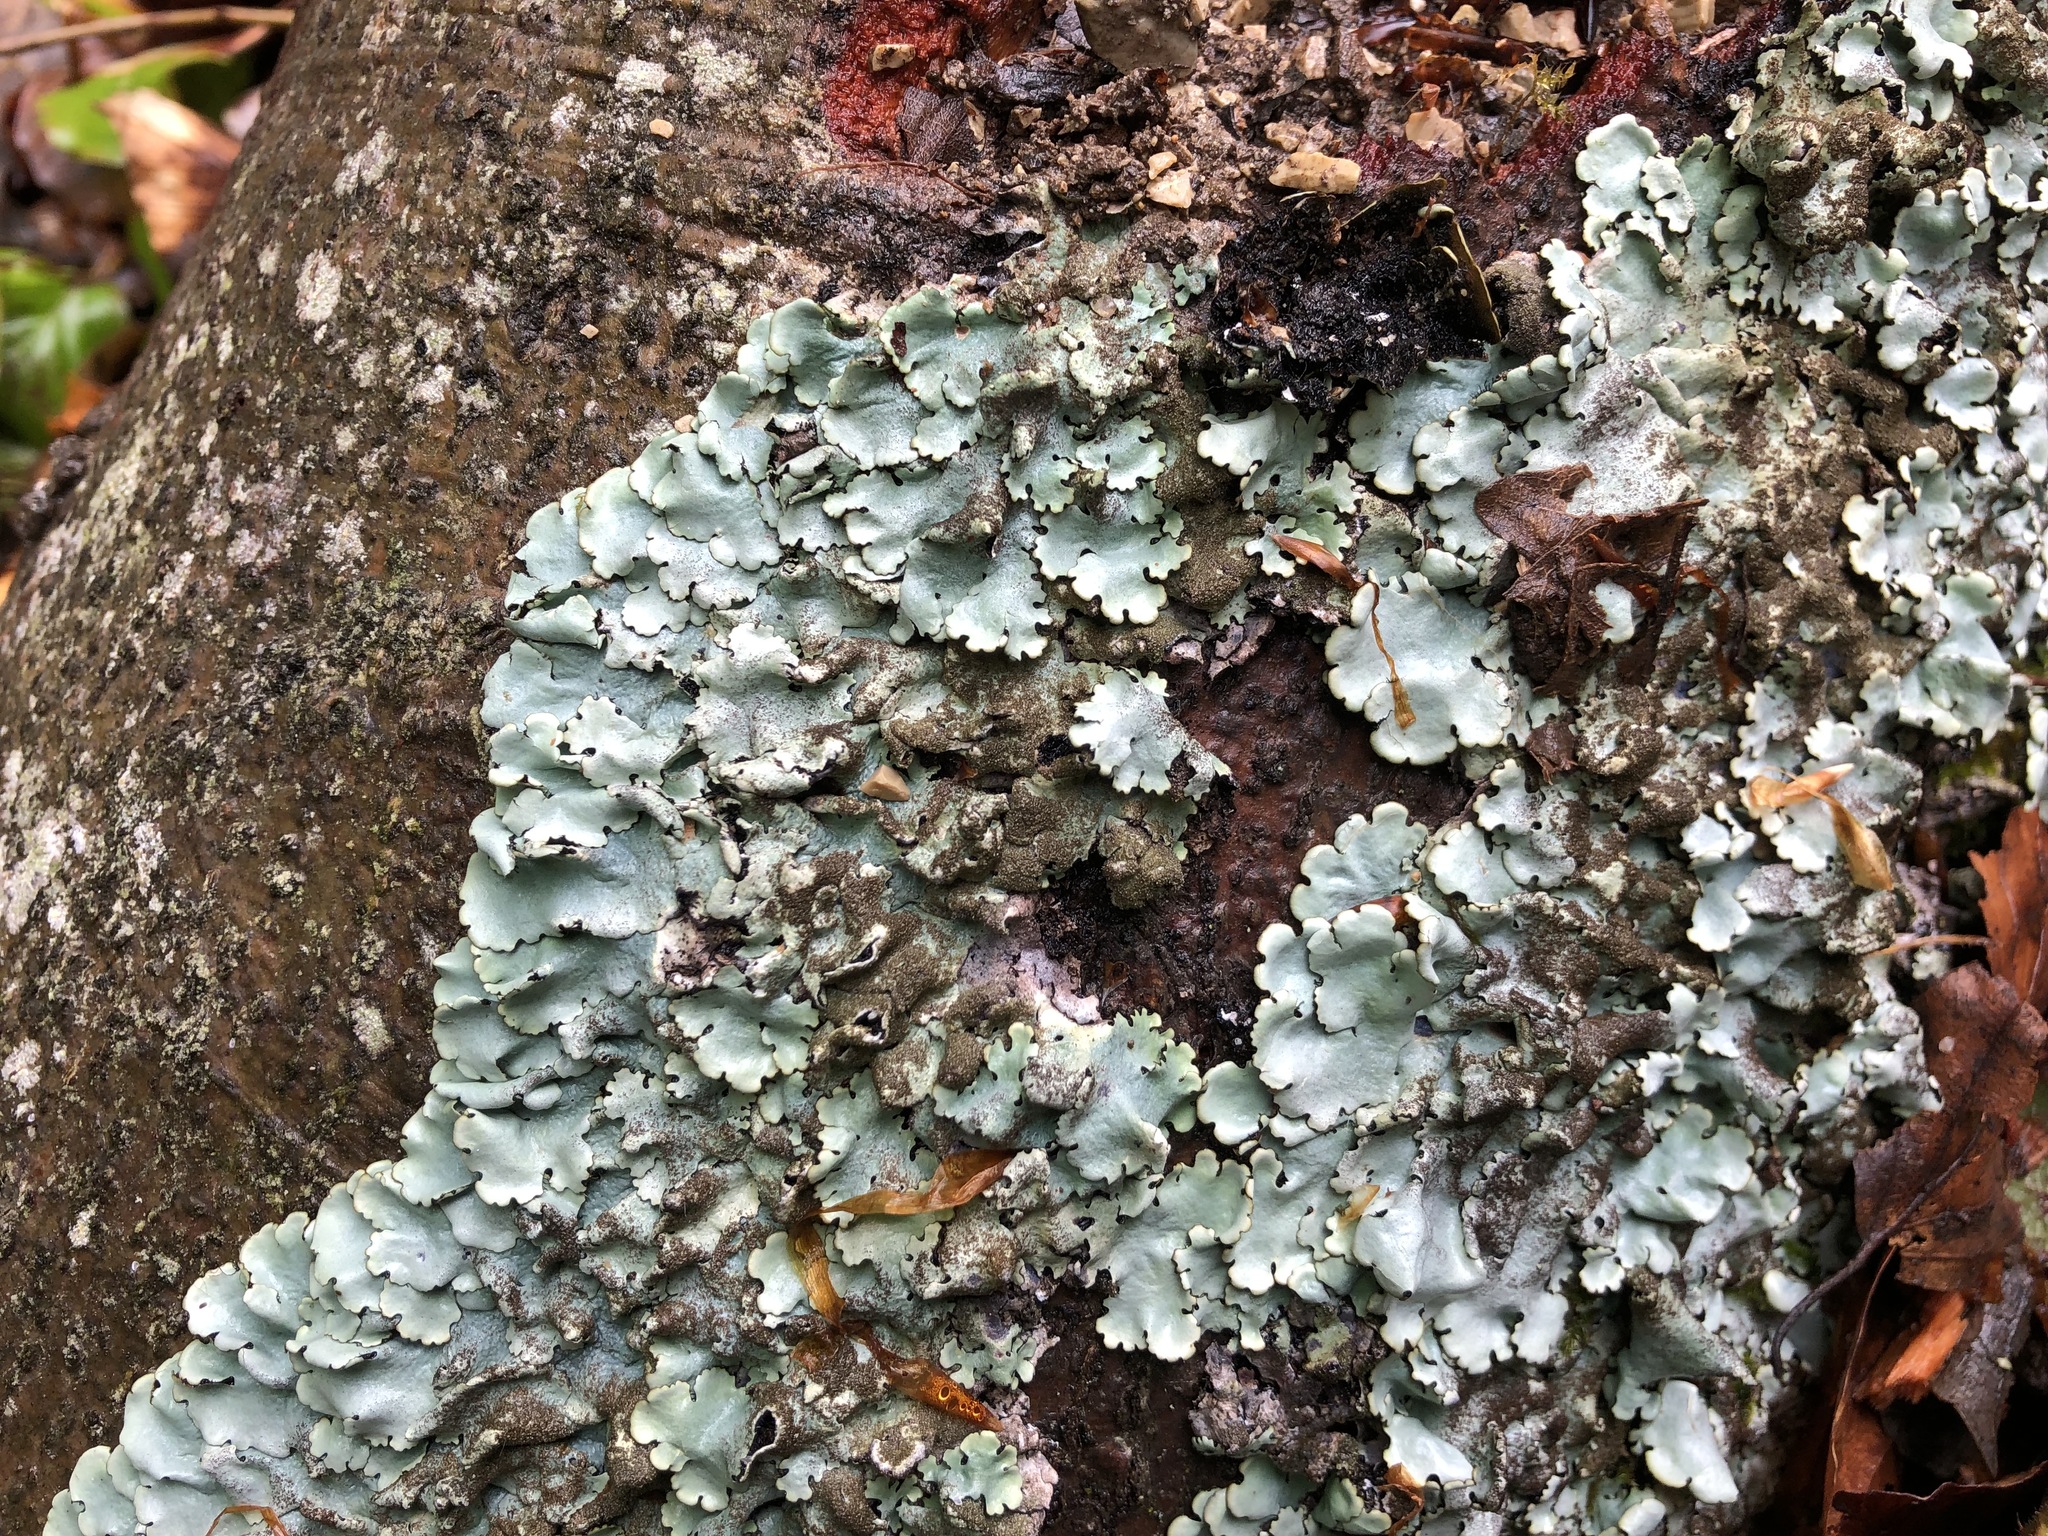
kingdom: Fungi
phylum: Ascomycota
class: Lecanoromycetes
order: Lecanorales
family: Parmeliaceae
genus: Parmelina
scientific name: Parmelina tiliacea
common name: Linden shield lichen
